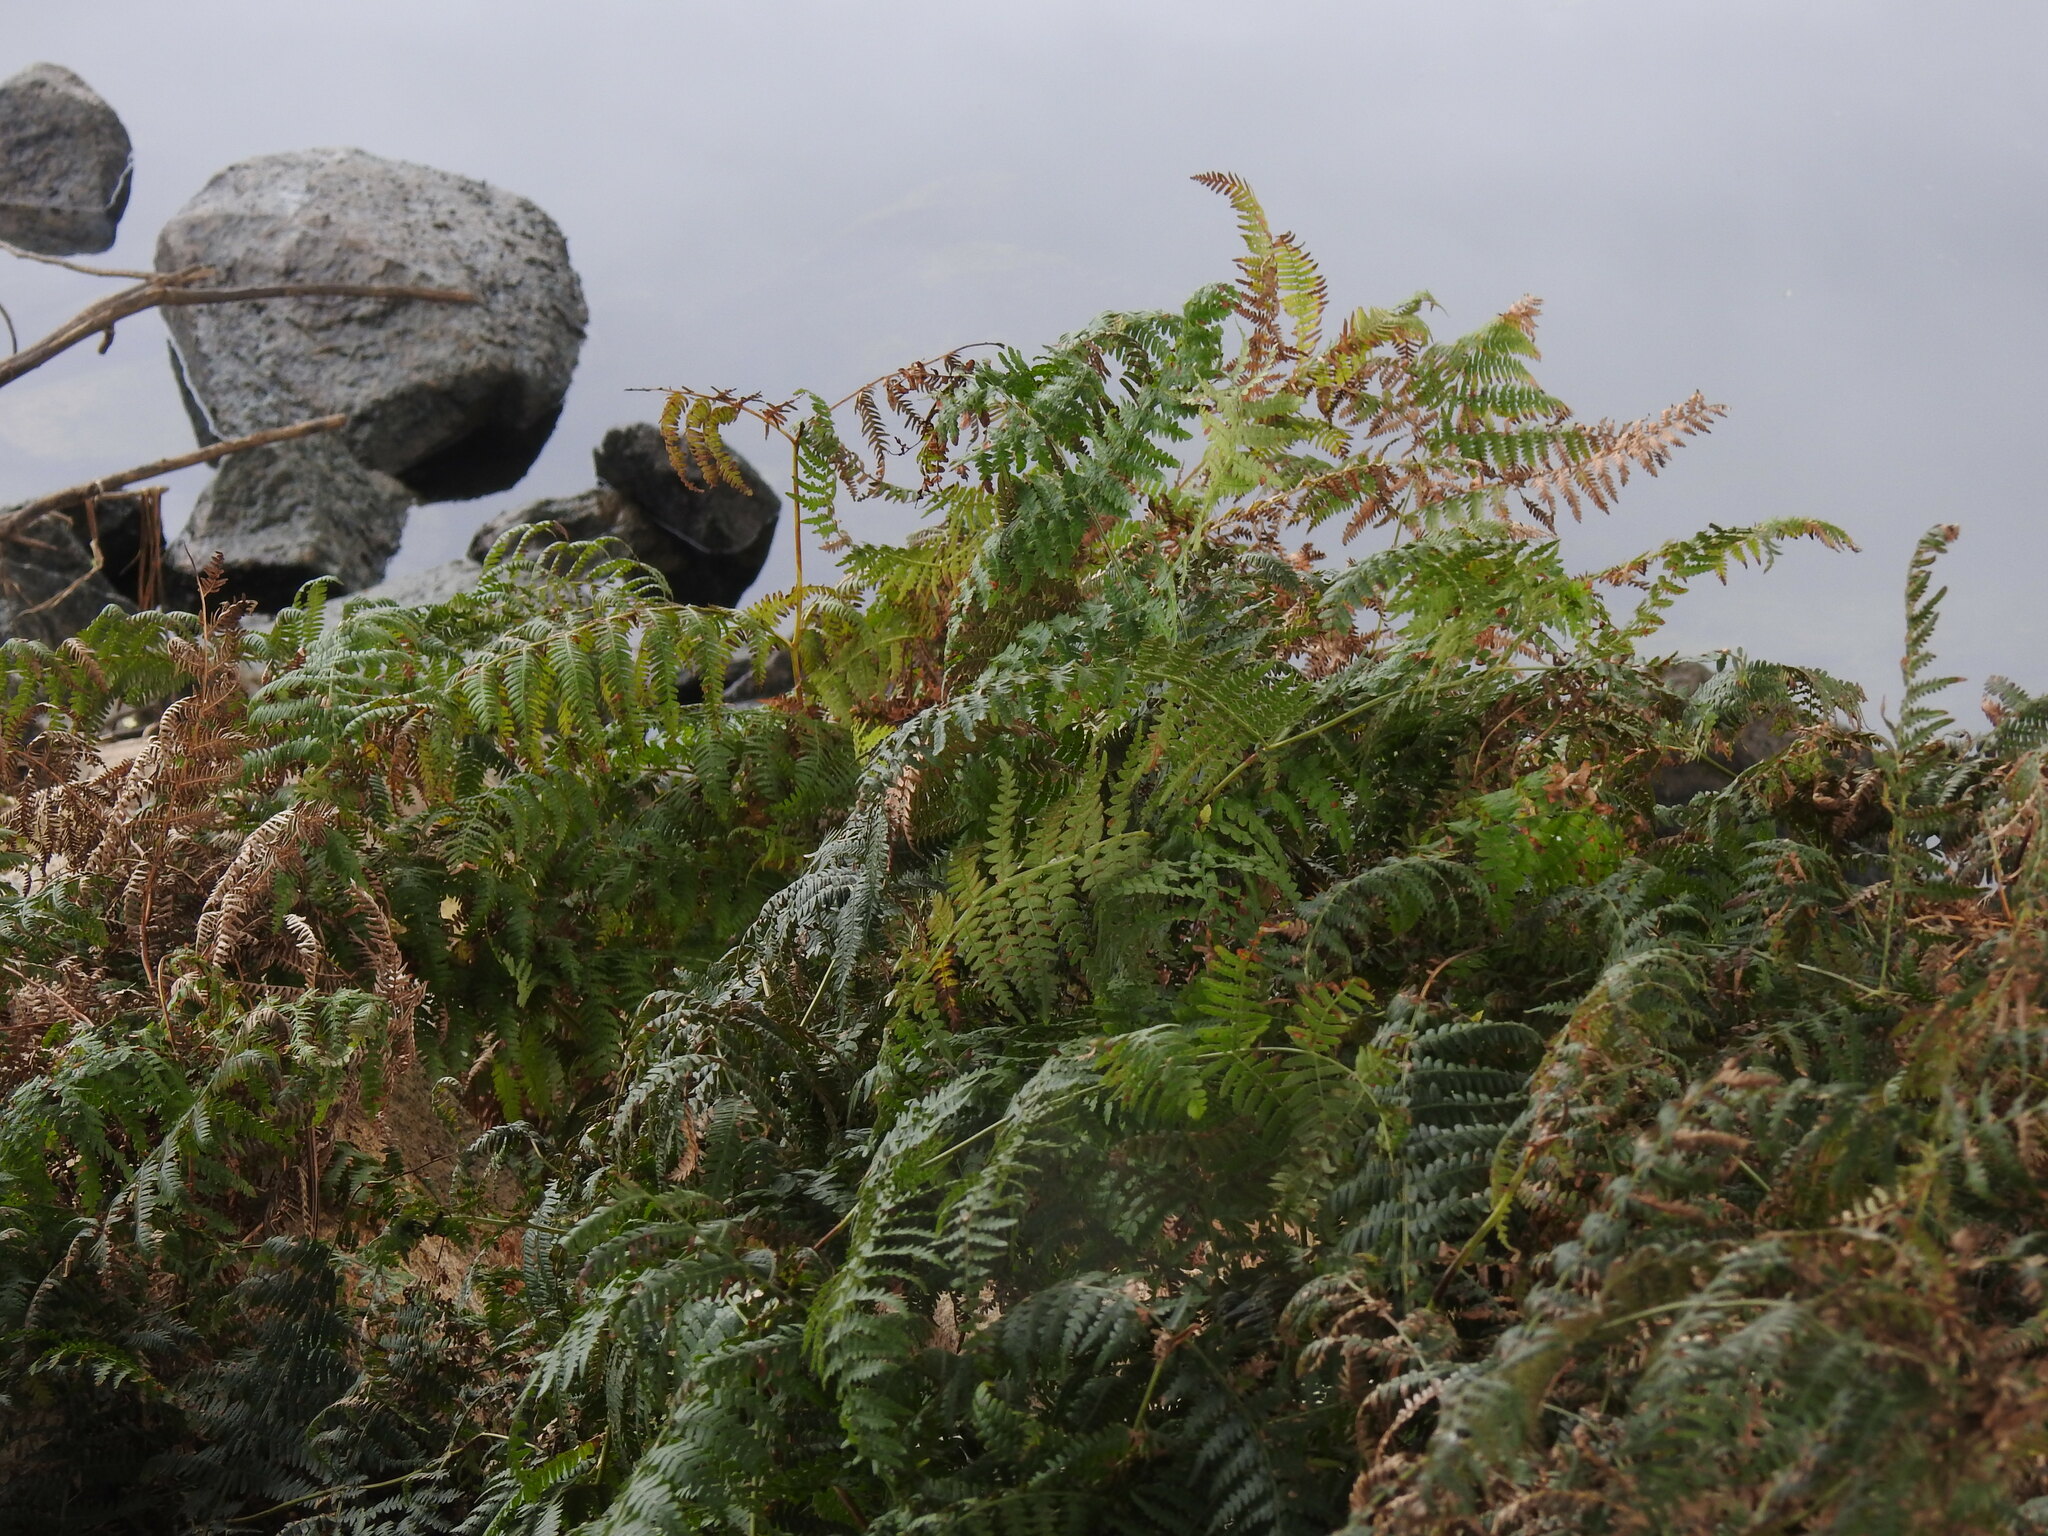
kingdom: Plantae
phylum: Tracheophyta
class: Polypodiopsida
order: Polypodiales
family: Dennstaedtiaceae
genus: Pteridium
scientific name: Pteridium aquilinum
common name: Bracken
